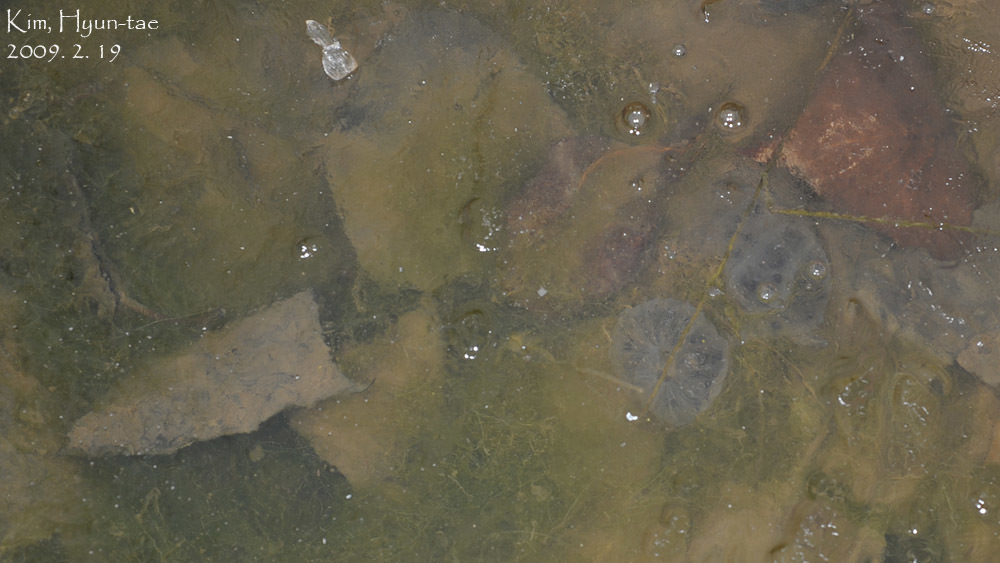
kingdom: Animalia
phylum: Chordata
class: Amphibia
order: Caudata
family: Hynobiidae
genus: Hynobius
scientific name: Hynobius leechii
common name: Gensan salamander
